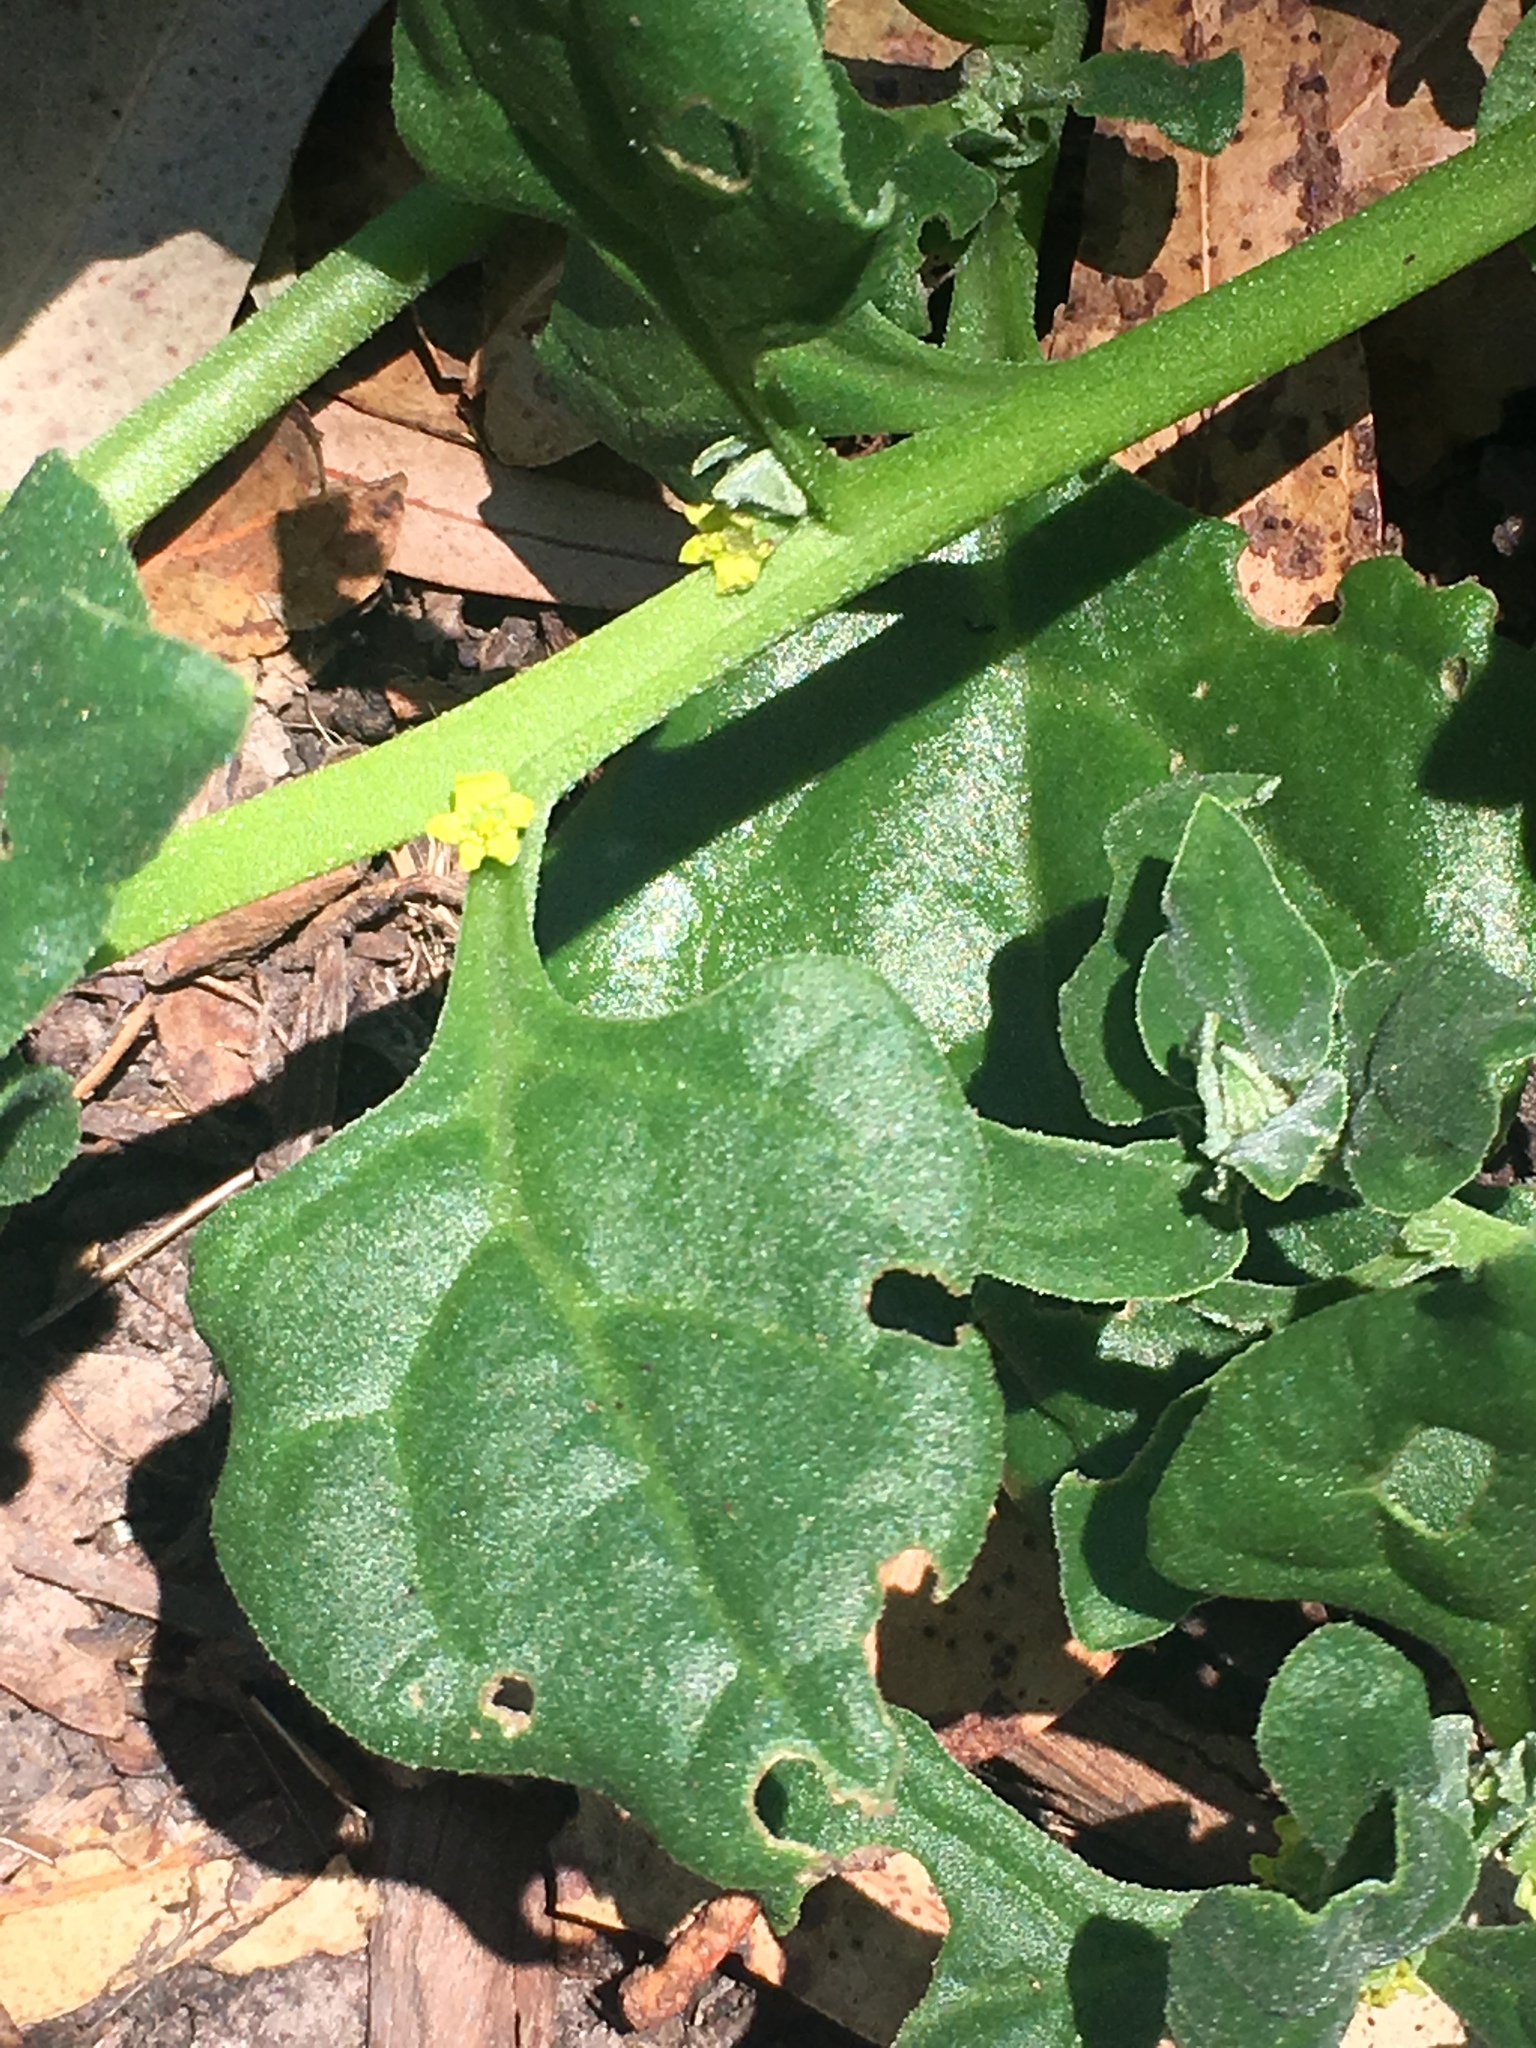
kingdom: Plantae
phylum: Tracheophyta
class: Magnoliopsida
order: Caryophyllales
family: Aizoaceae
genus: Tetragonia
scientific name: Tetragonia tetragonoides
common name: New zealand-spinach
